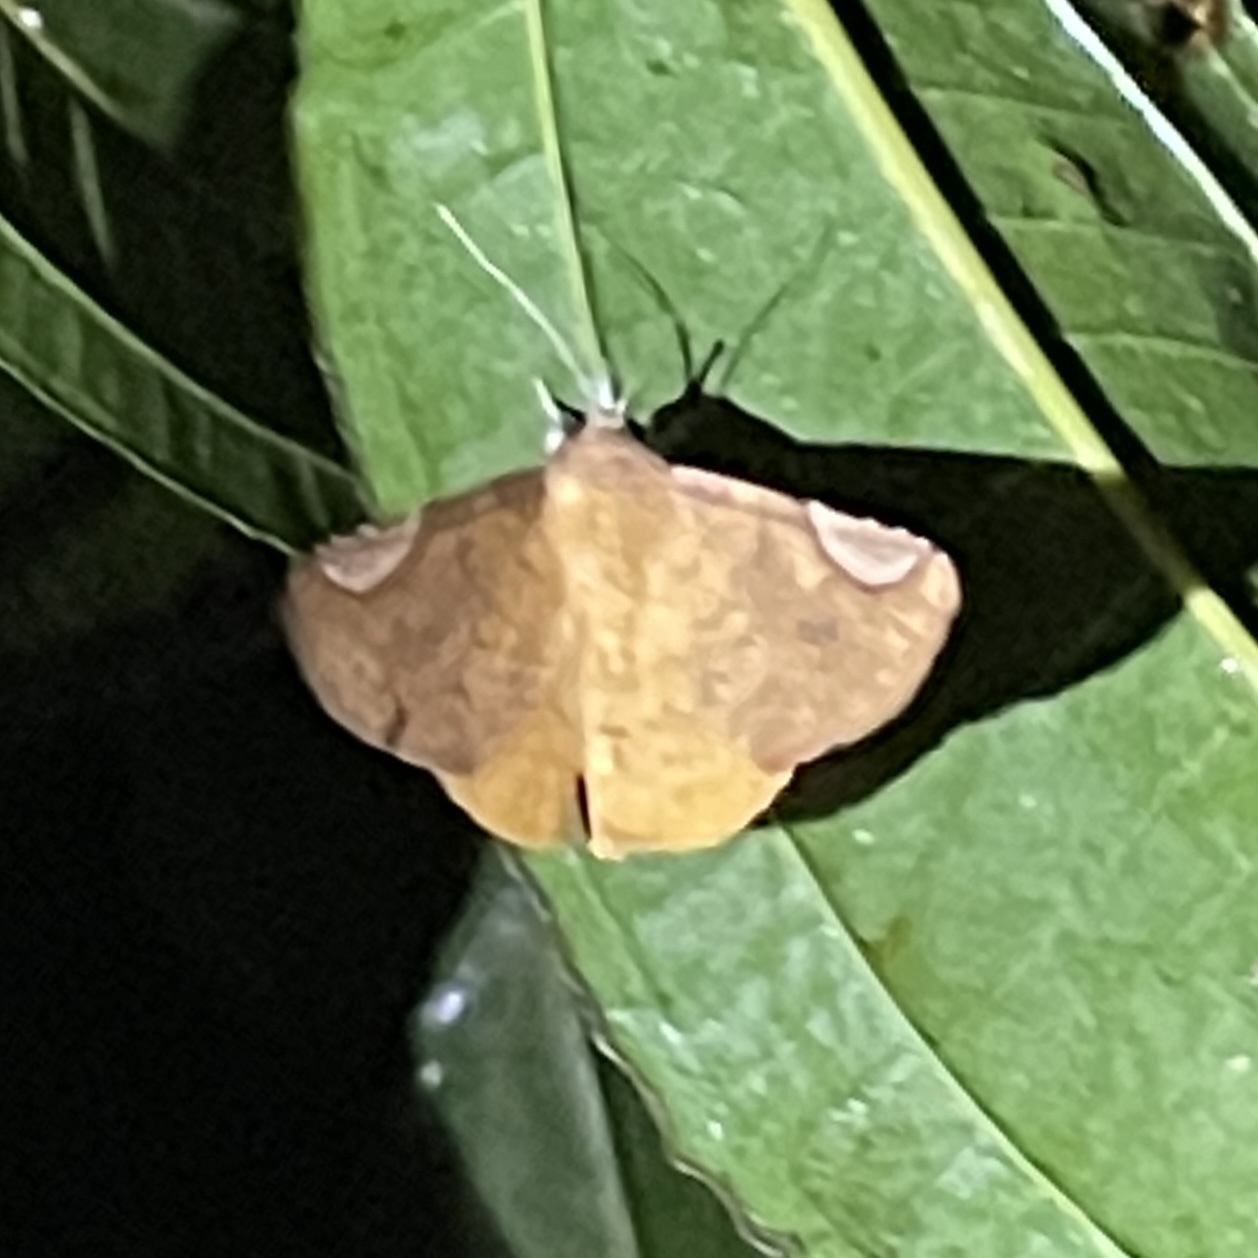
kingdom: Animalia
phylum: Arthropoda
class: Insecta
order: Lepidoptera
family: Erebidae
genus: Mecodinops
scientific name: Mecodinops relata
